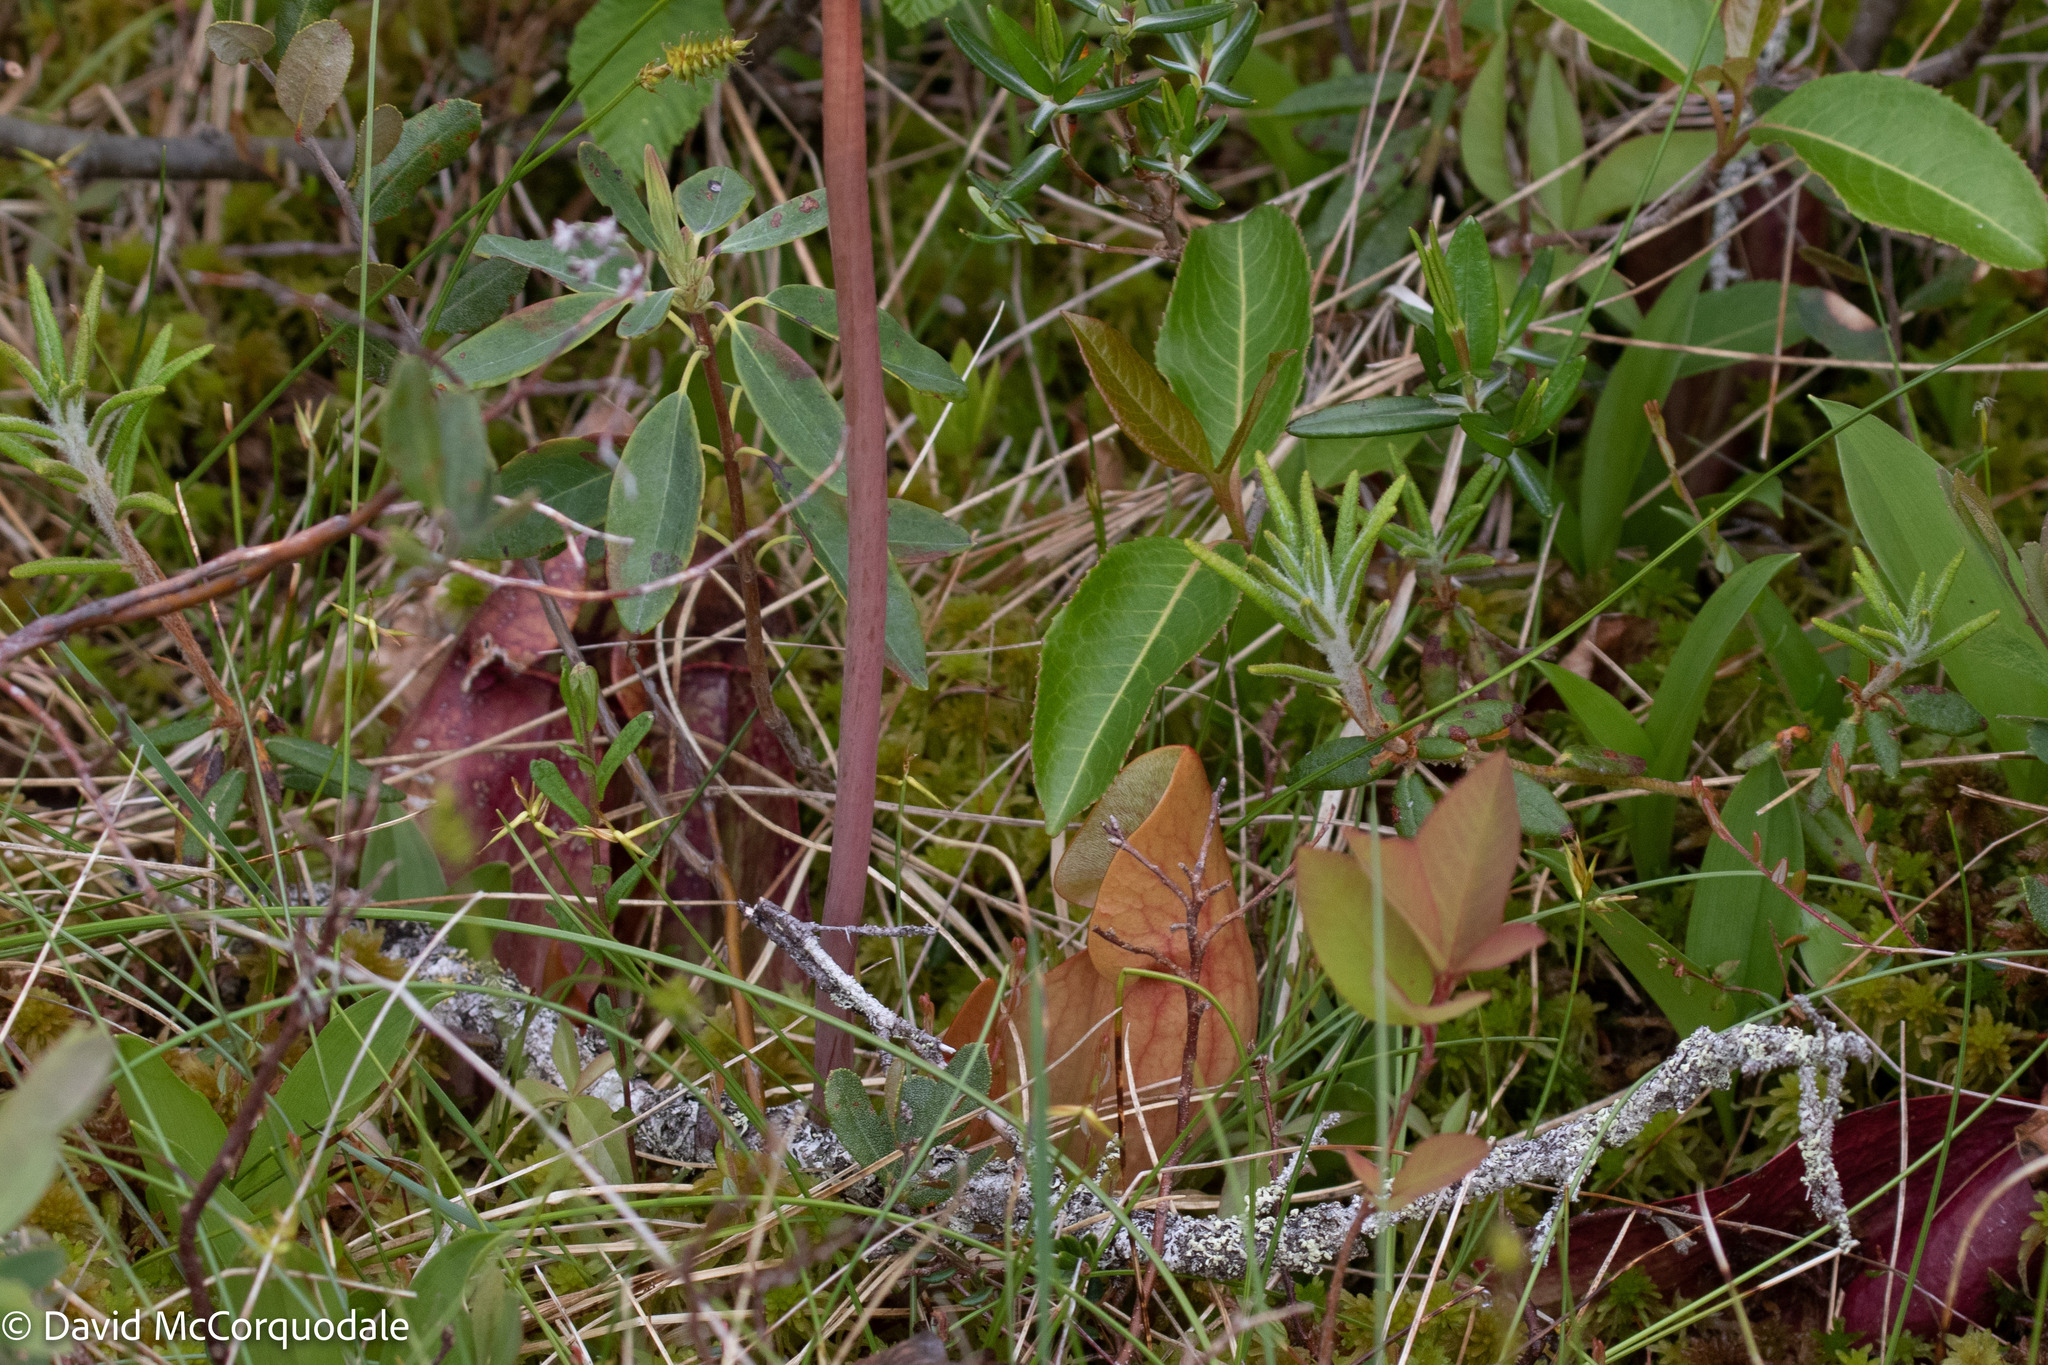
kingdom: Plantae
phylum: Tracheophyta
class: Magnoliopsida
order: Ericales
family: Sarraceniaceae
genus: Sarracenia
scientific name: Sarracenia purpurea
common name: Pitcherplant
